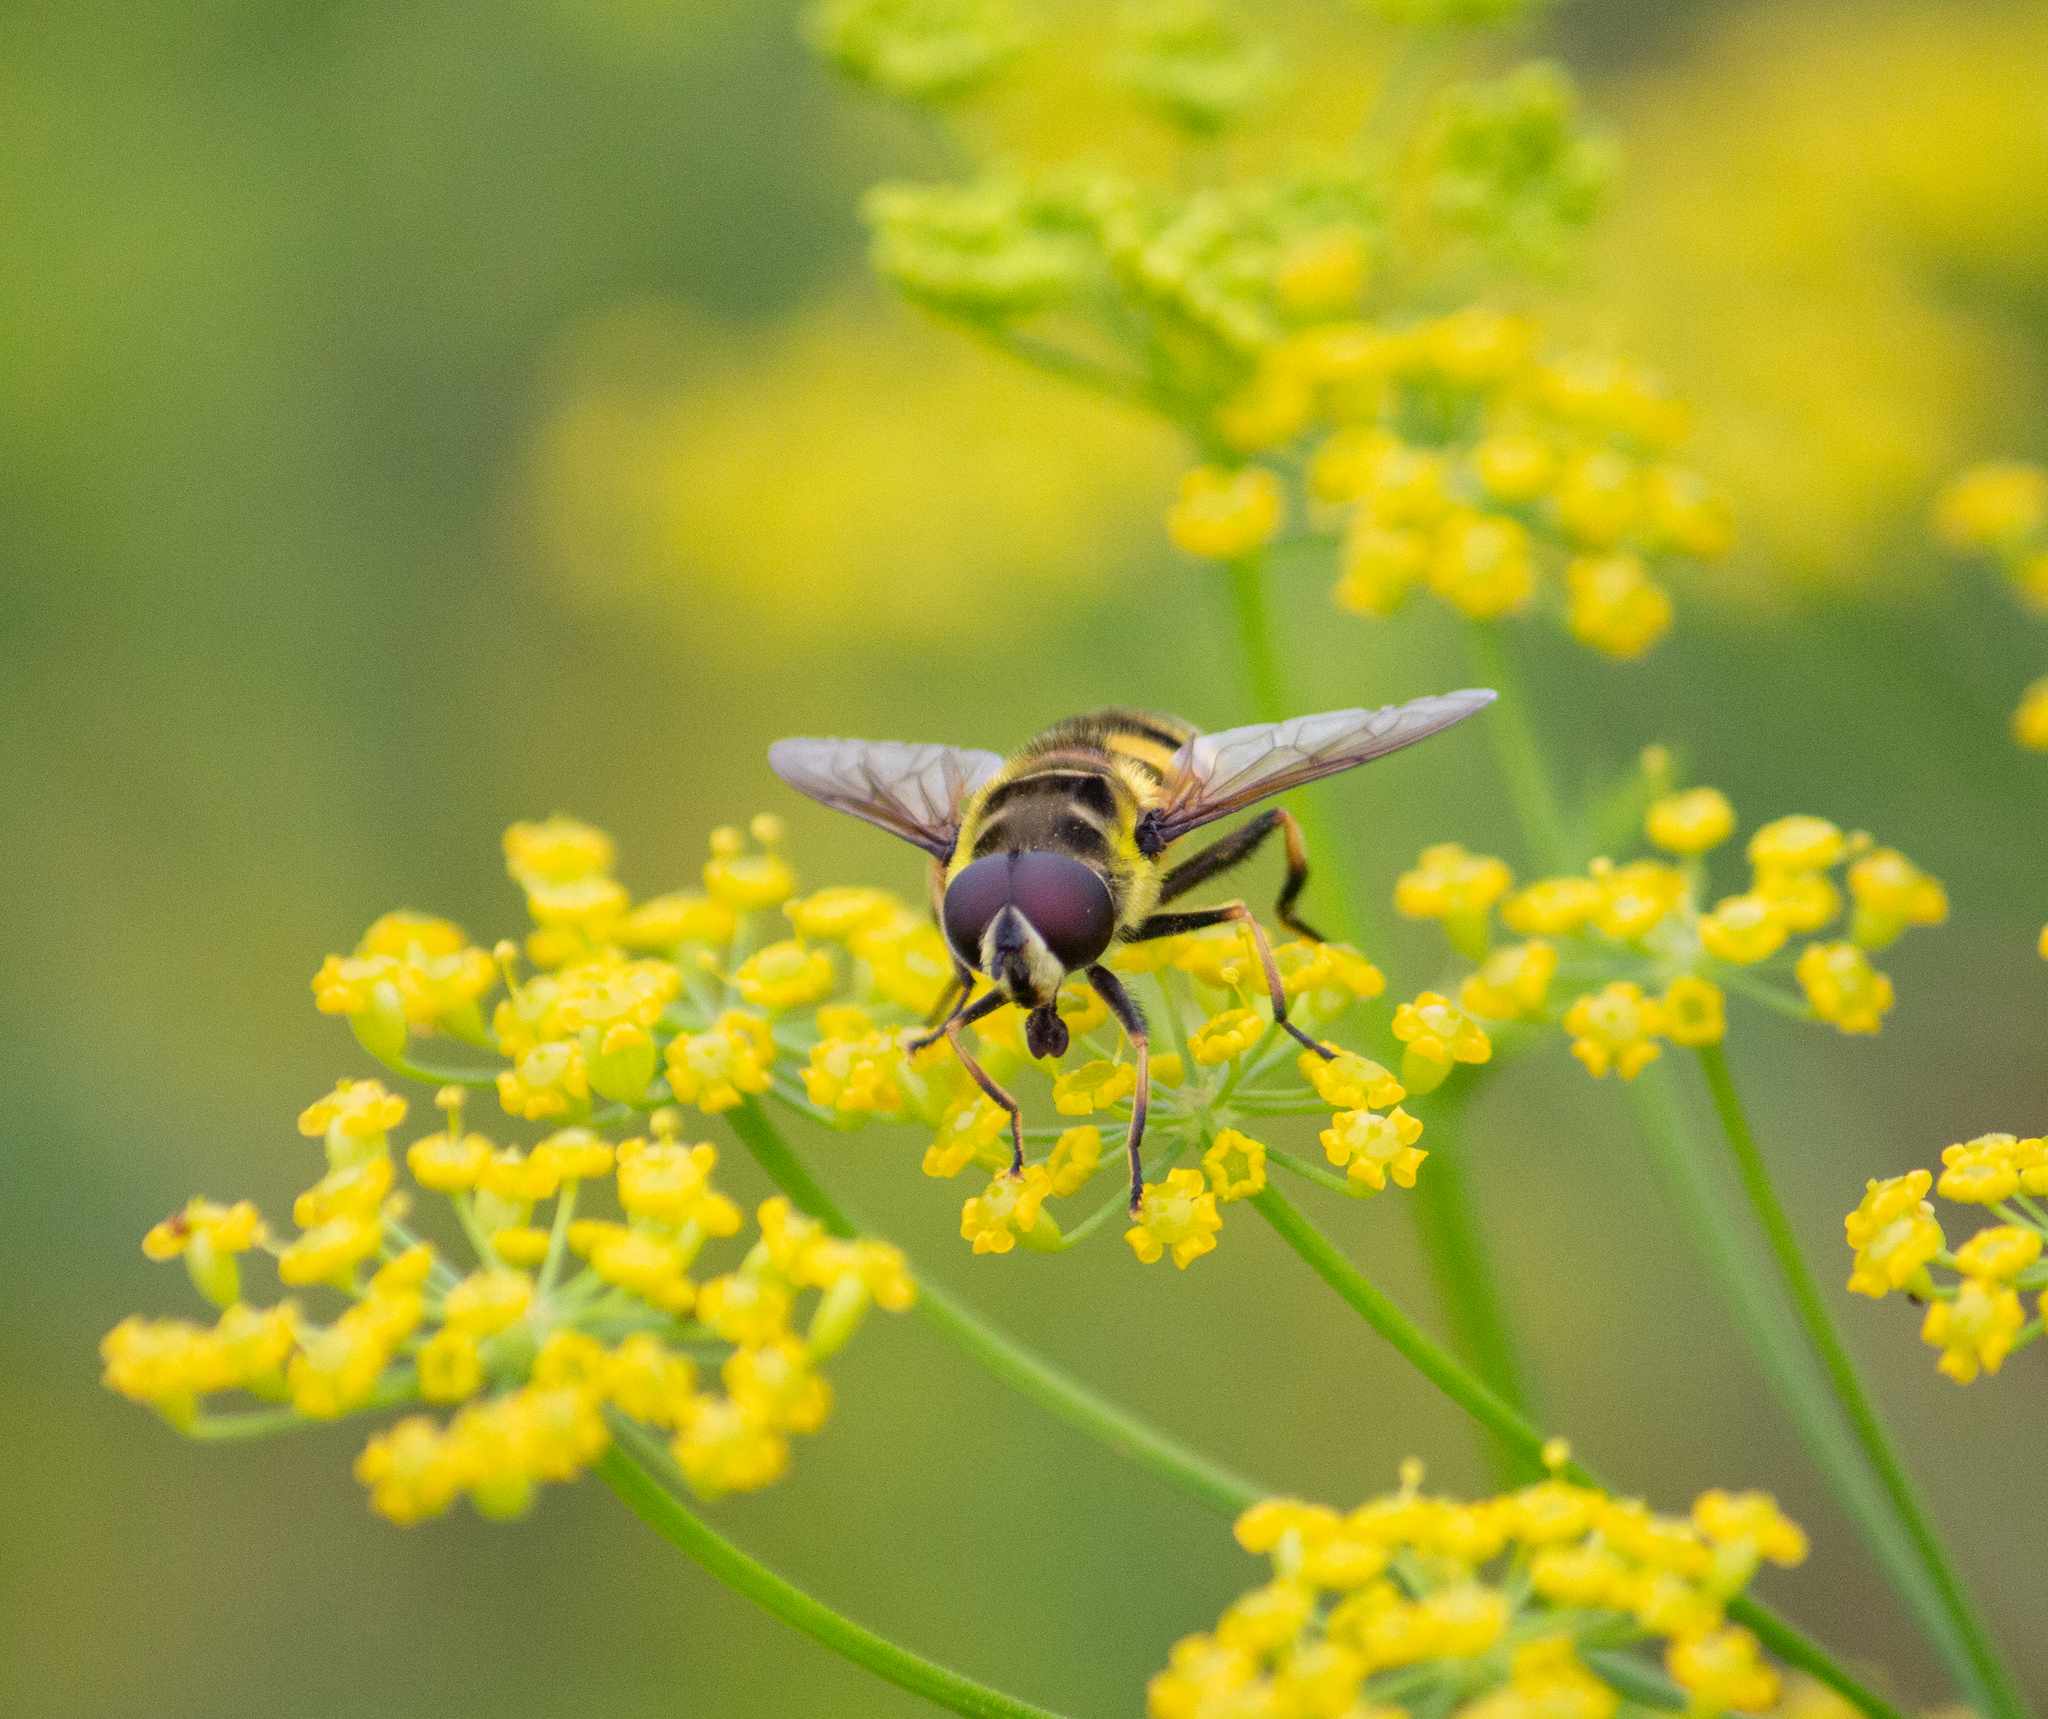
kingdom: Animalia
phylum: Arthropoda
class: Insecta
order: Diptera
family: Syrphidae
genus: Myathropa
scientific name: Myathropa florea
